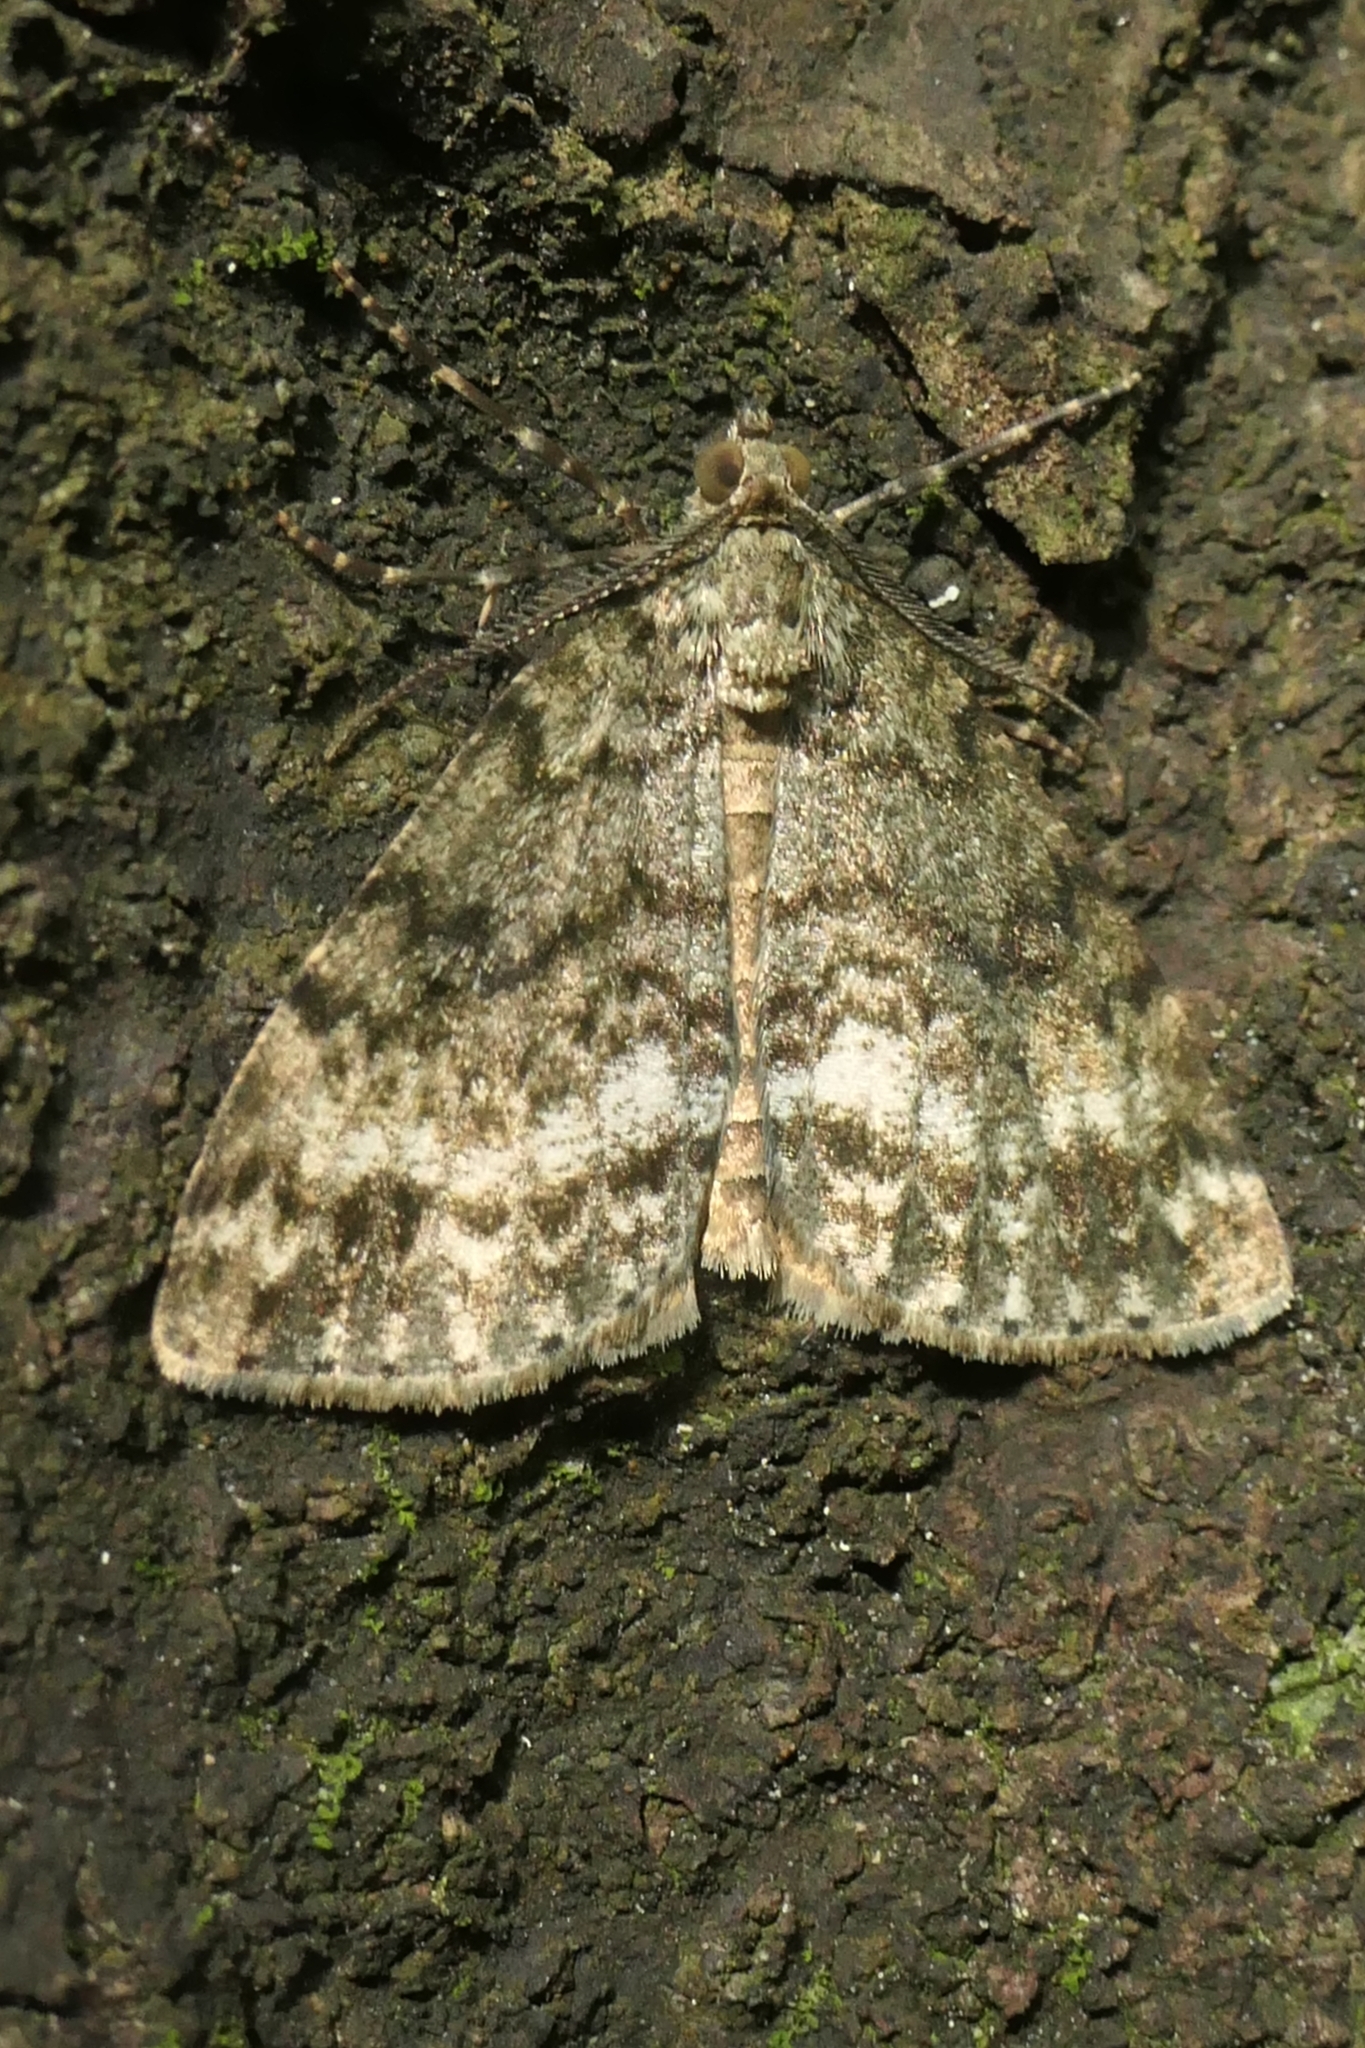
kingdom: Animalia
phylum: Arthropoda
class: Insecta
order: Lepidoptera
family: Geometridae
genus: Pseudocoremia
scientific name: Pseudocoremia indistincta
